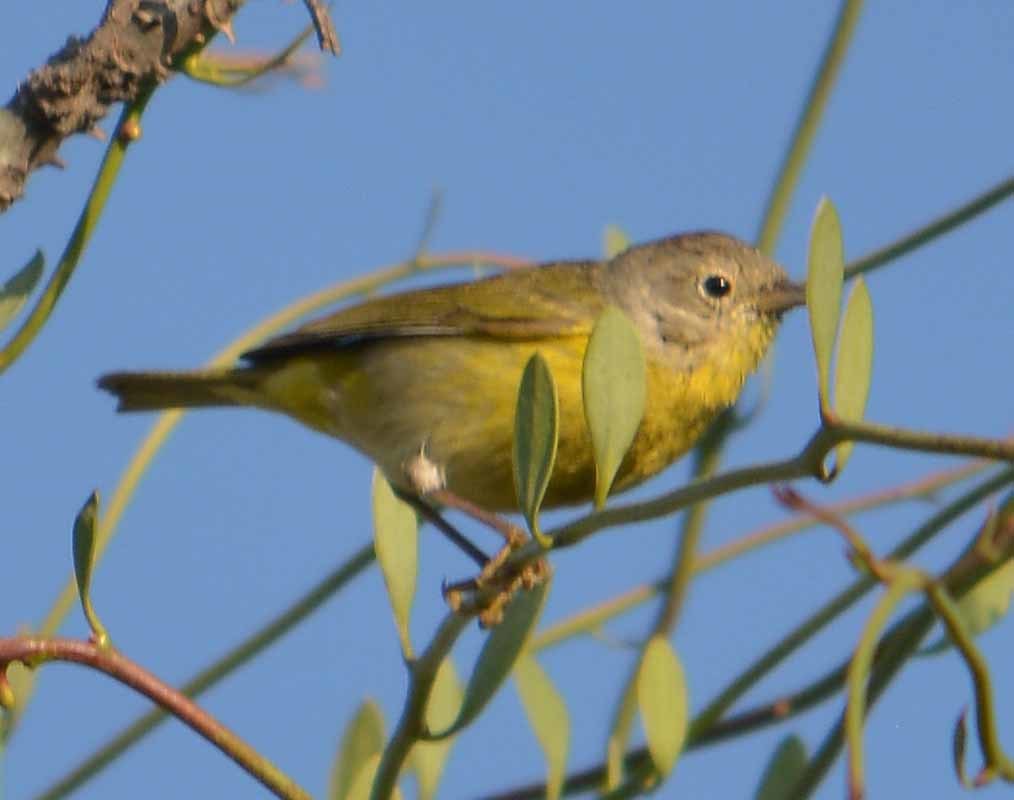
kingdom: Animalia
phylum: Chordata
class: Aves
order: Passeriformes
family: Parulidae
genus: Leiothlypis
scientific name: Leiothlypis ruficapilla
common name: Nashville warbler
